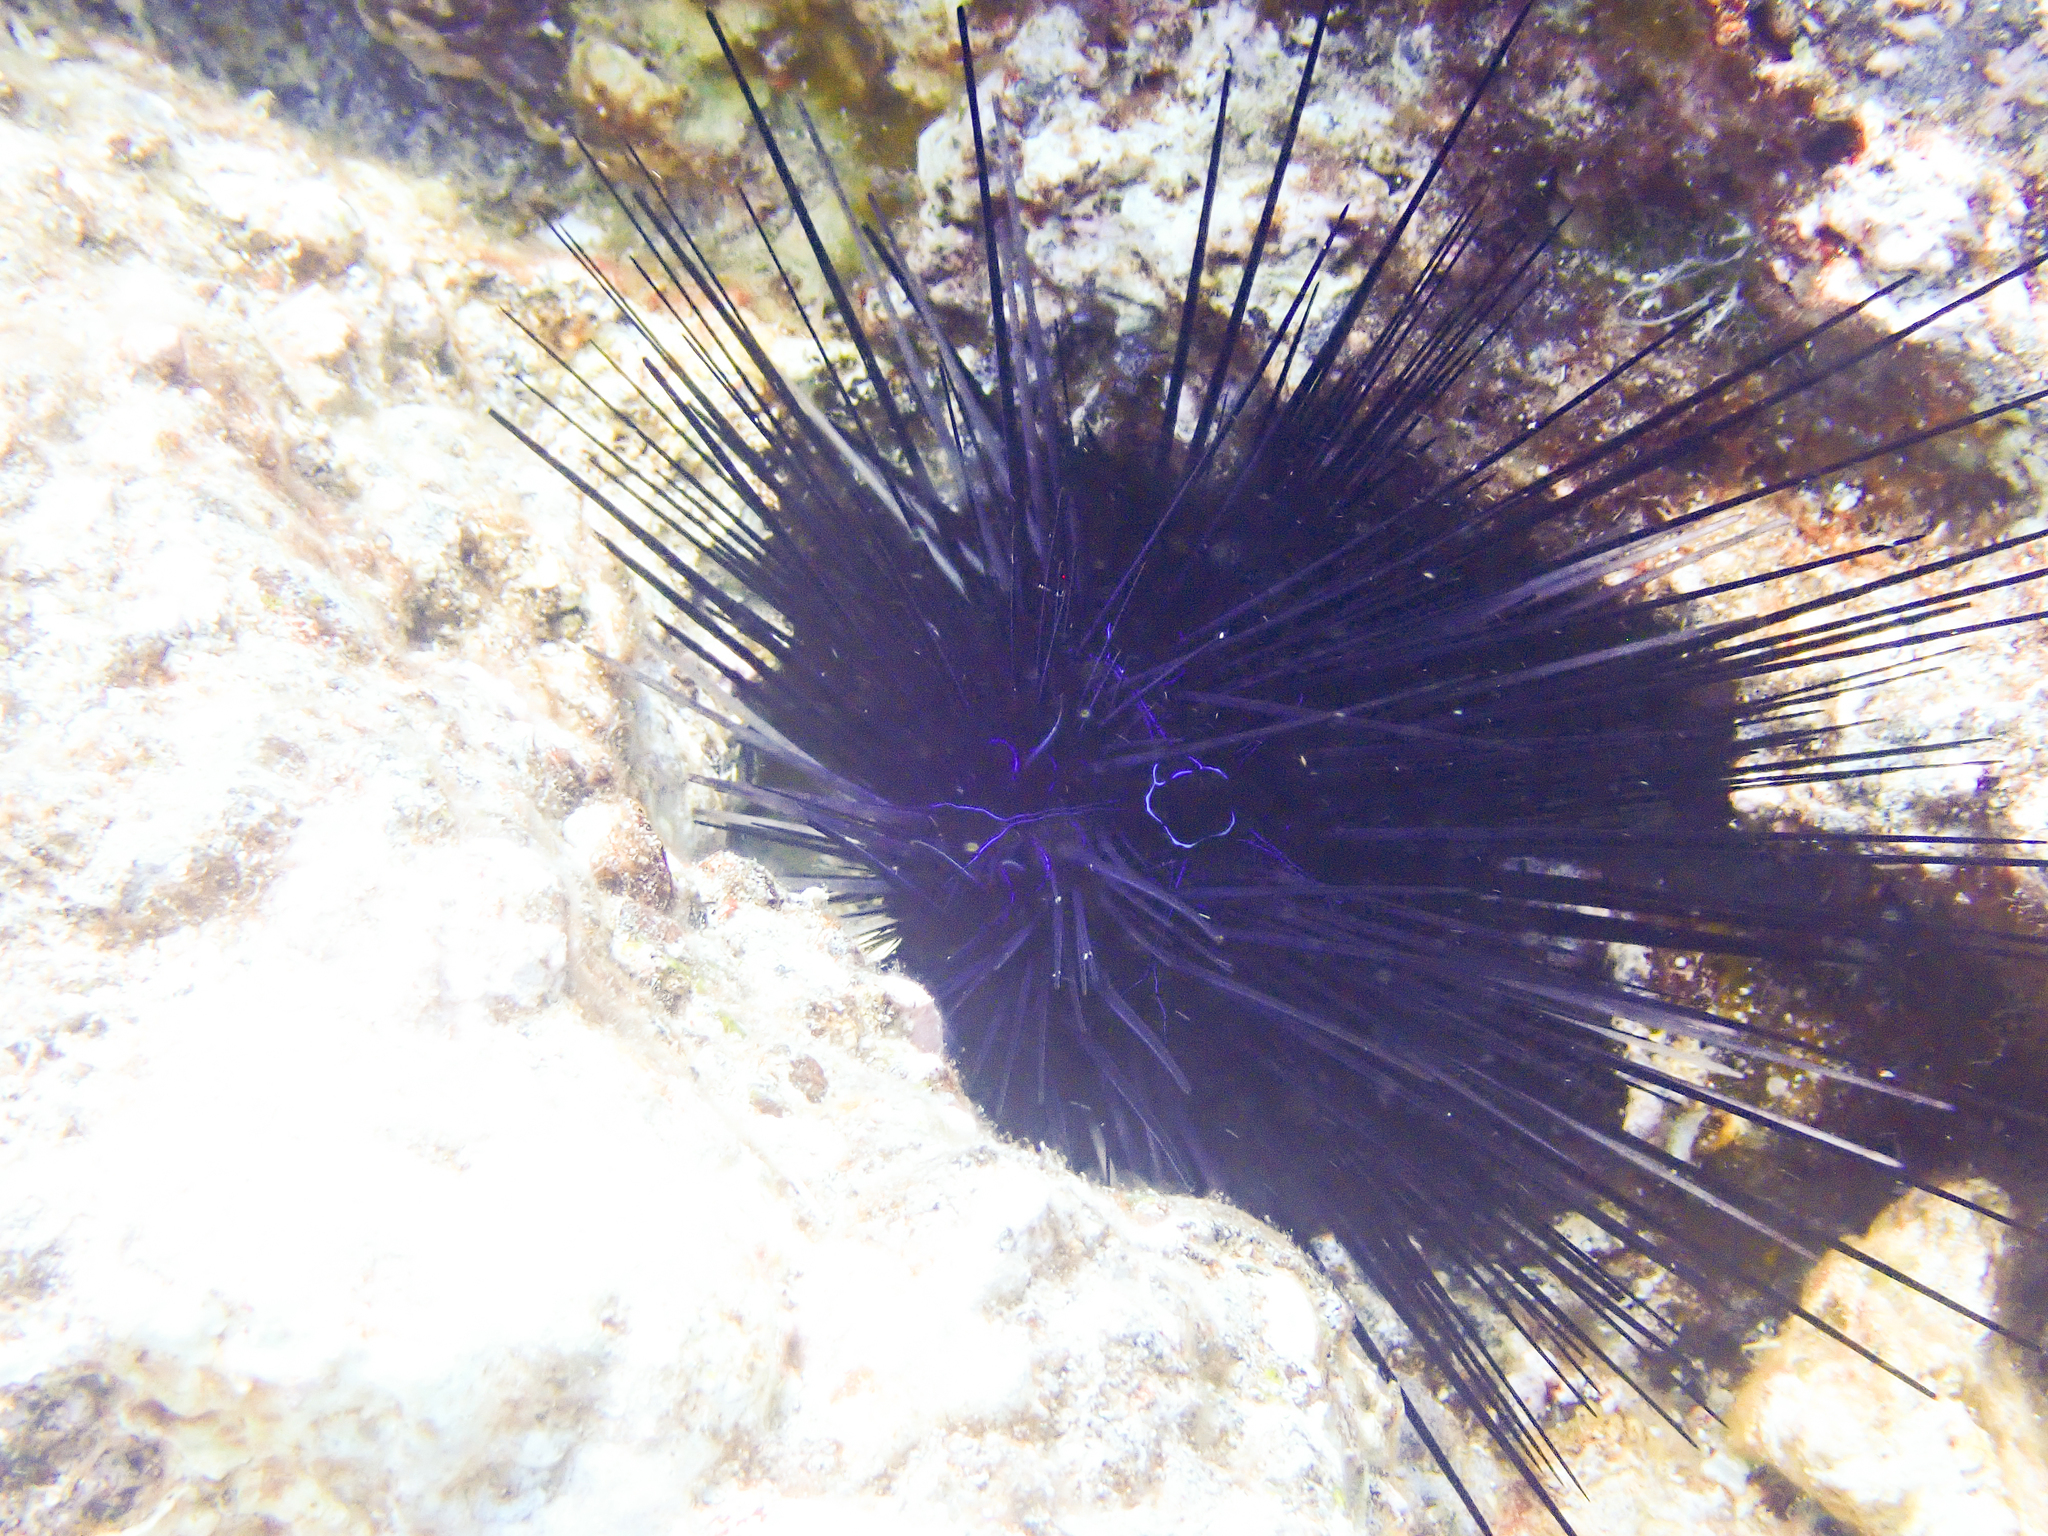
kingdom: Animalia
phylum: Echinodermata
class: Echinoidea
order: Diadematoida
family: Diadematidae
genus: Diadema
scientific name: Diadema savignyi
